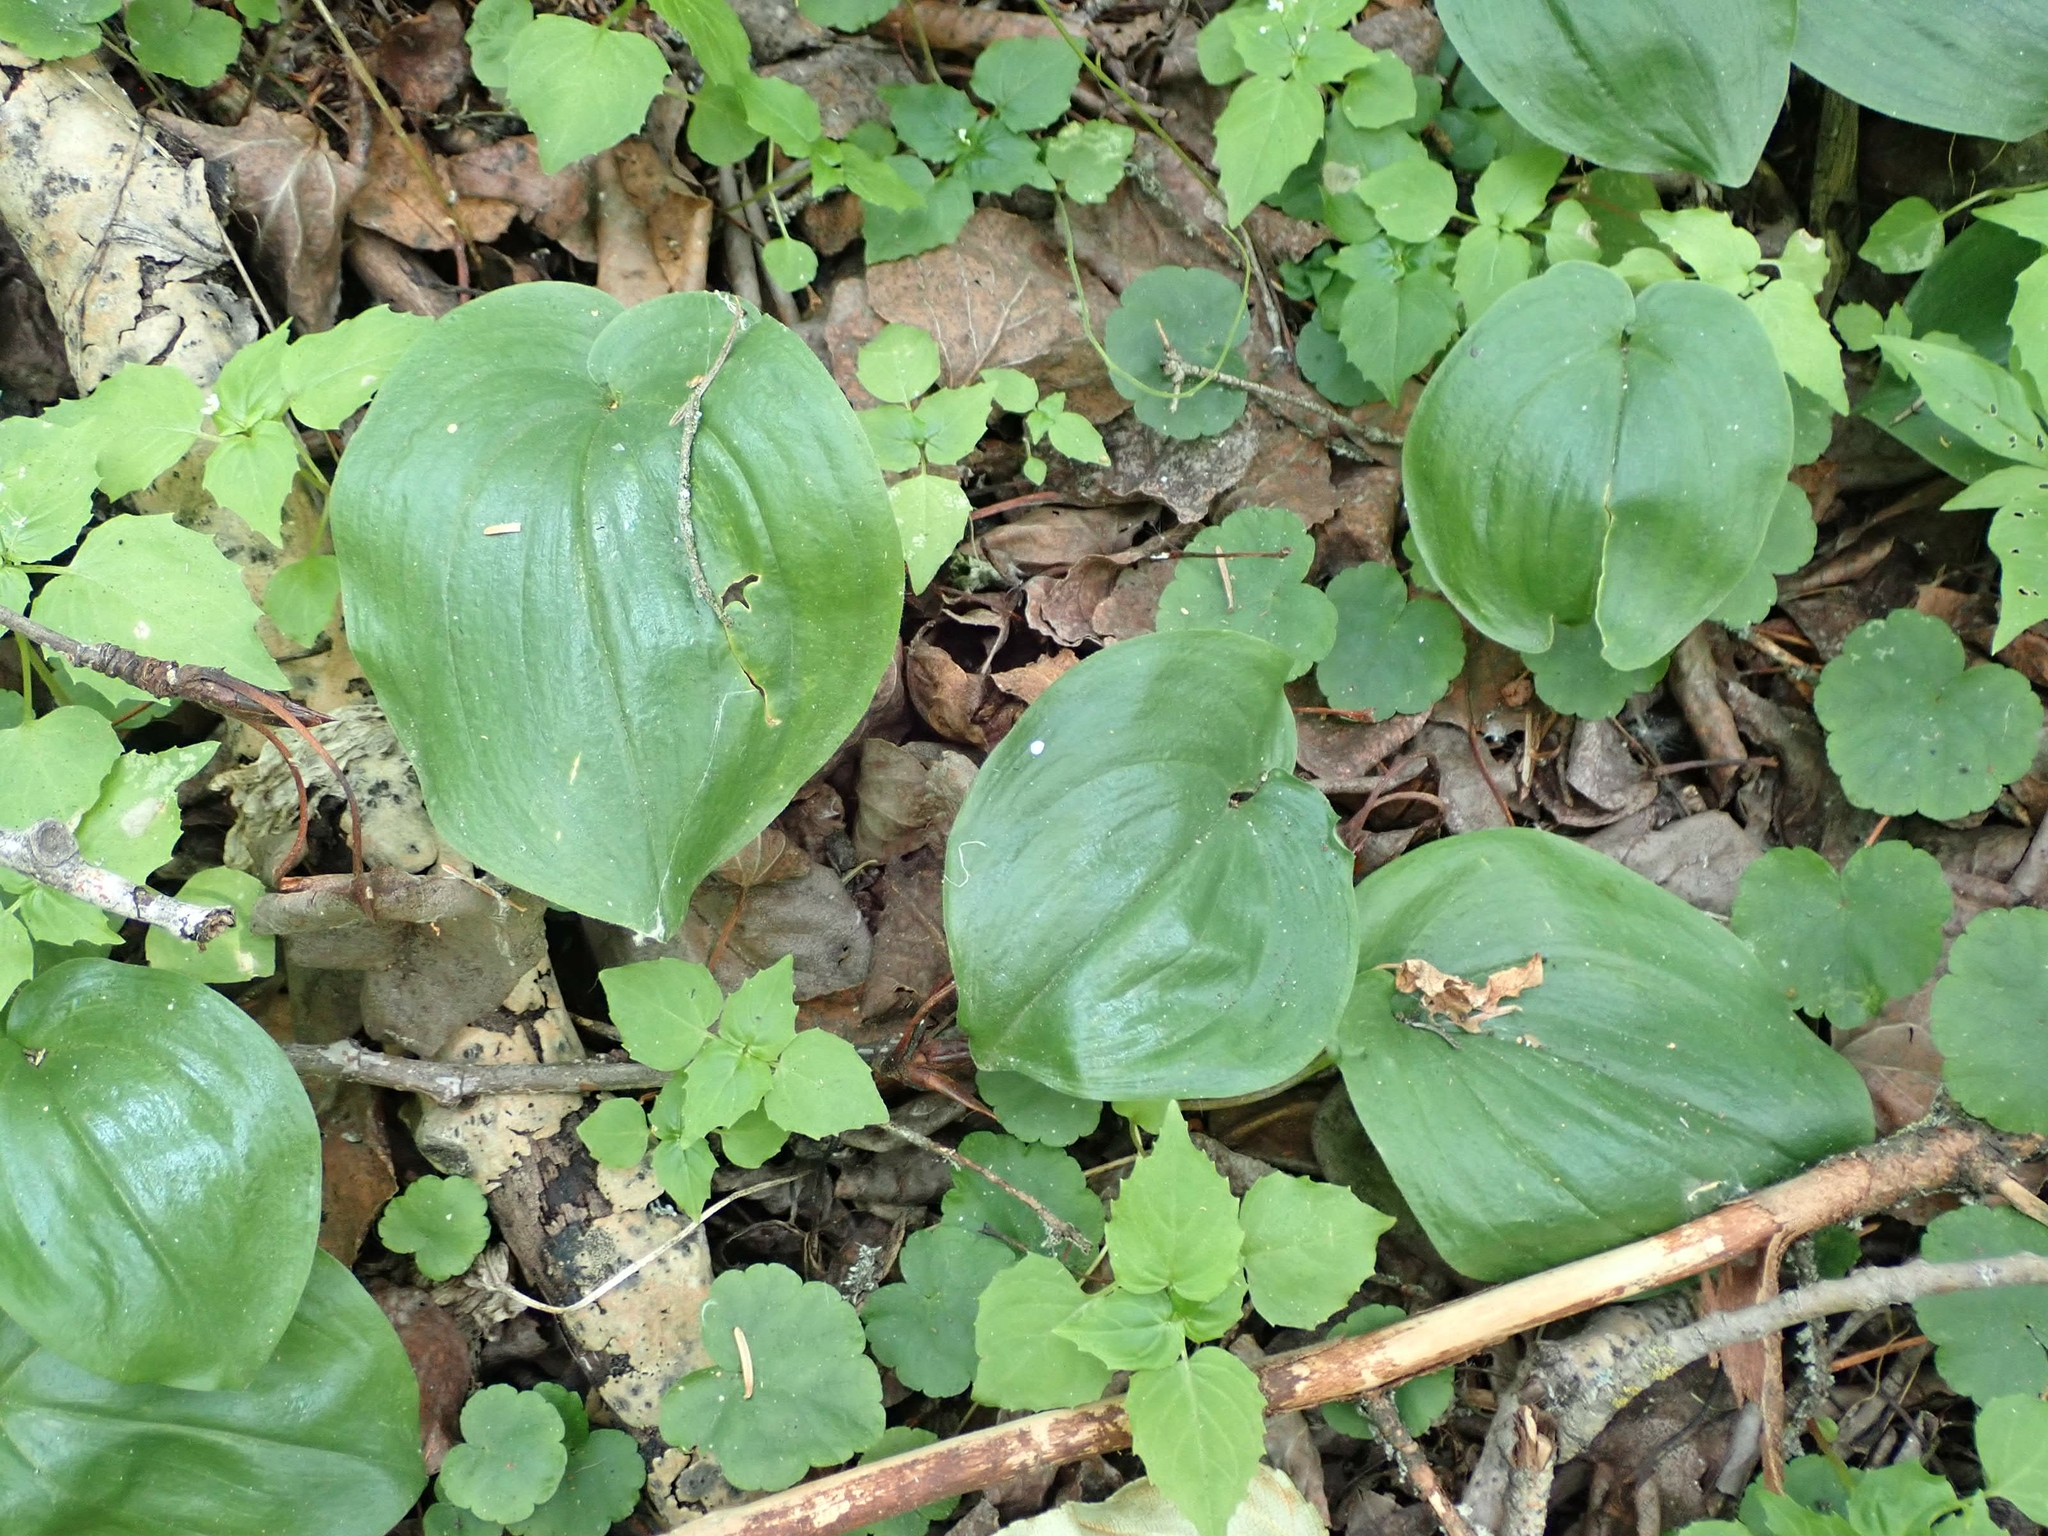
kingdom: Plantae
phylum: Tracheophyta
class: Liliopsida
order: Asparagales
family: Asparagaceae
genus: Maianthemum
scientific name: Maianthemum canadense
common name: False lily-of-the-valley
